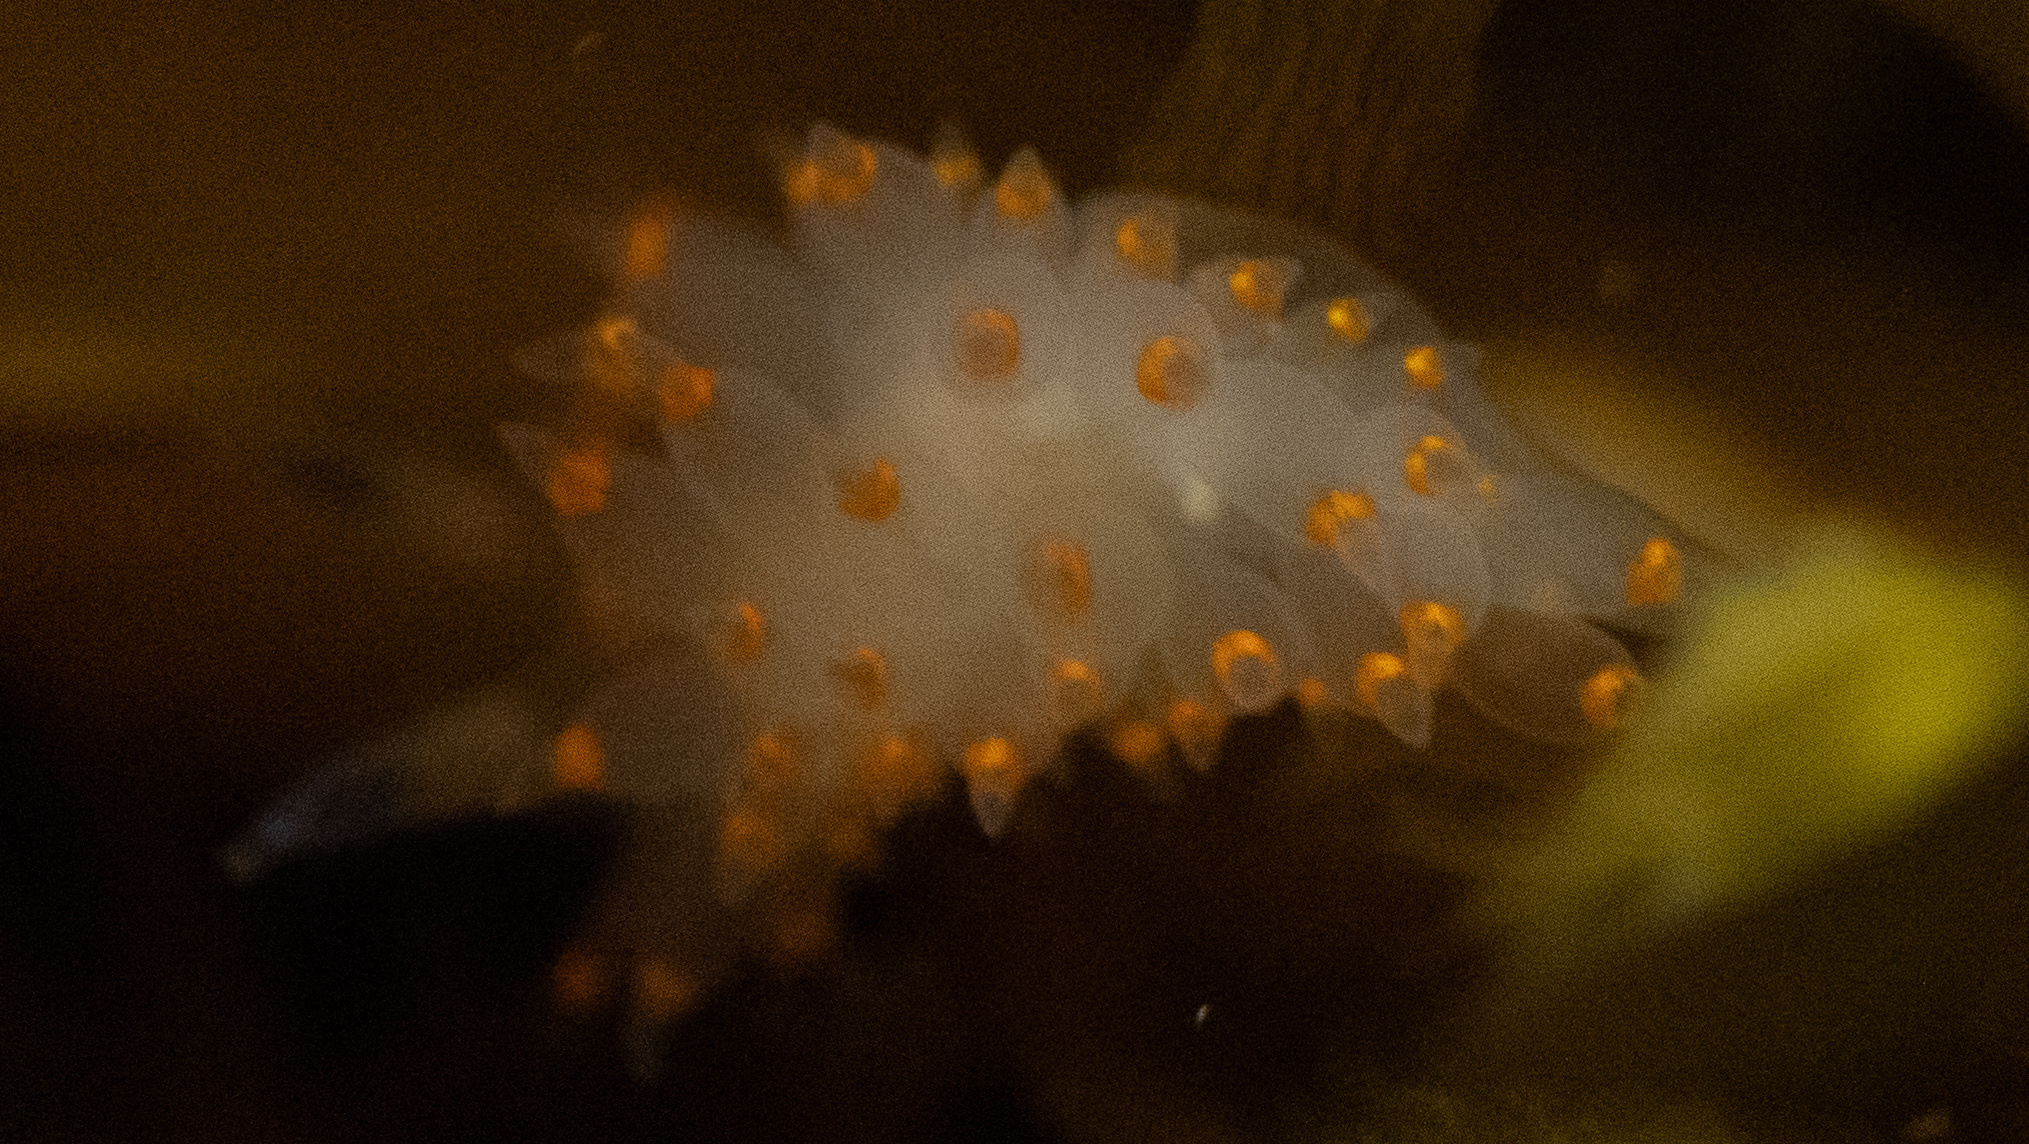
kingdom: Animalia
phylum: Mollusca
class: Gastropoda
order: Nudibranchia
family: Janolidae
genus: Antiopella
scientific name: Antiopella barbarensis
